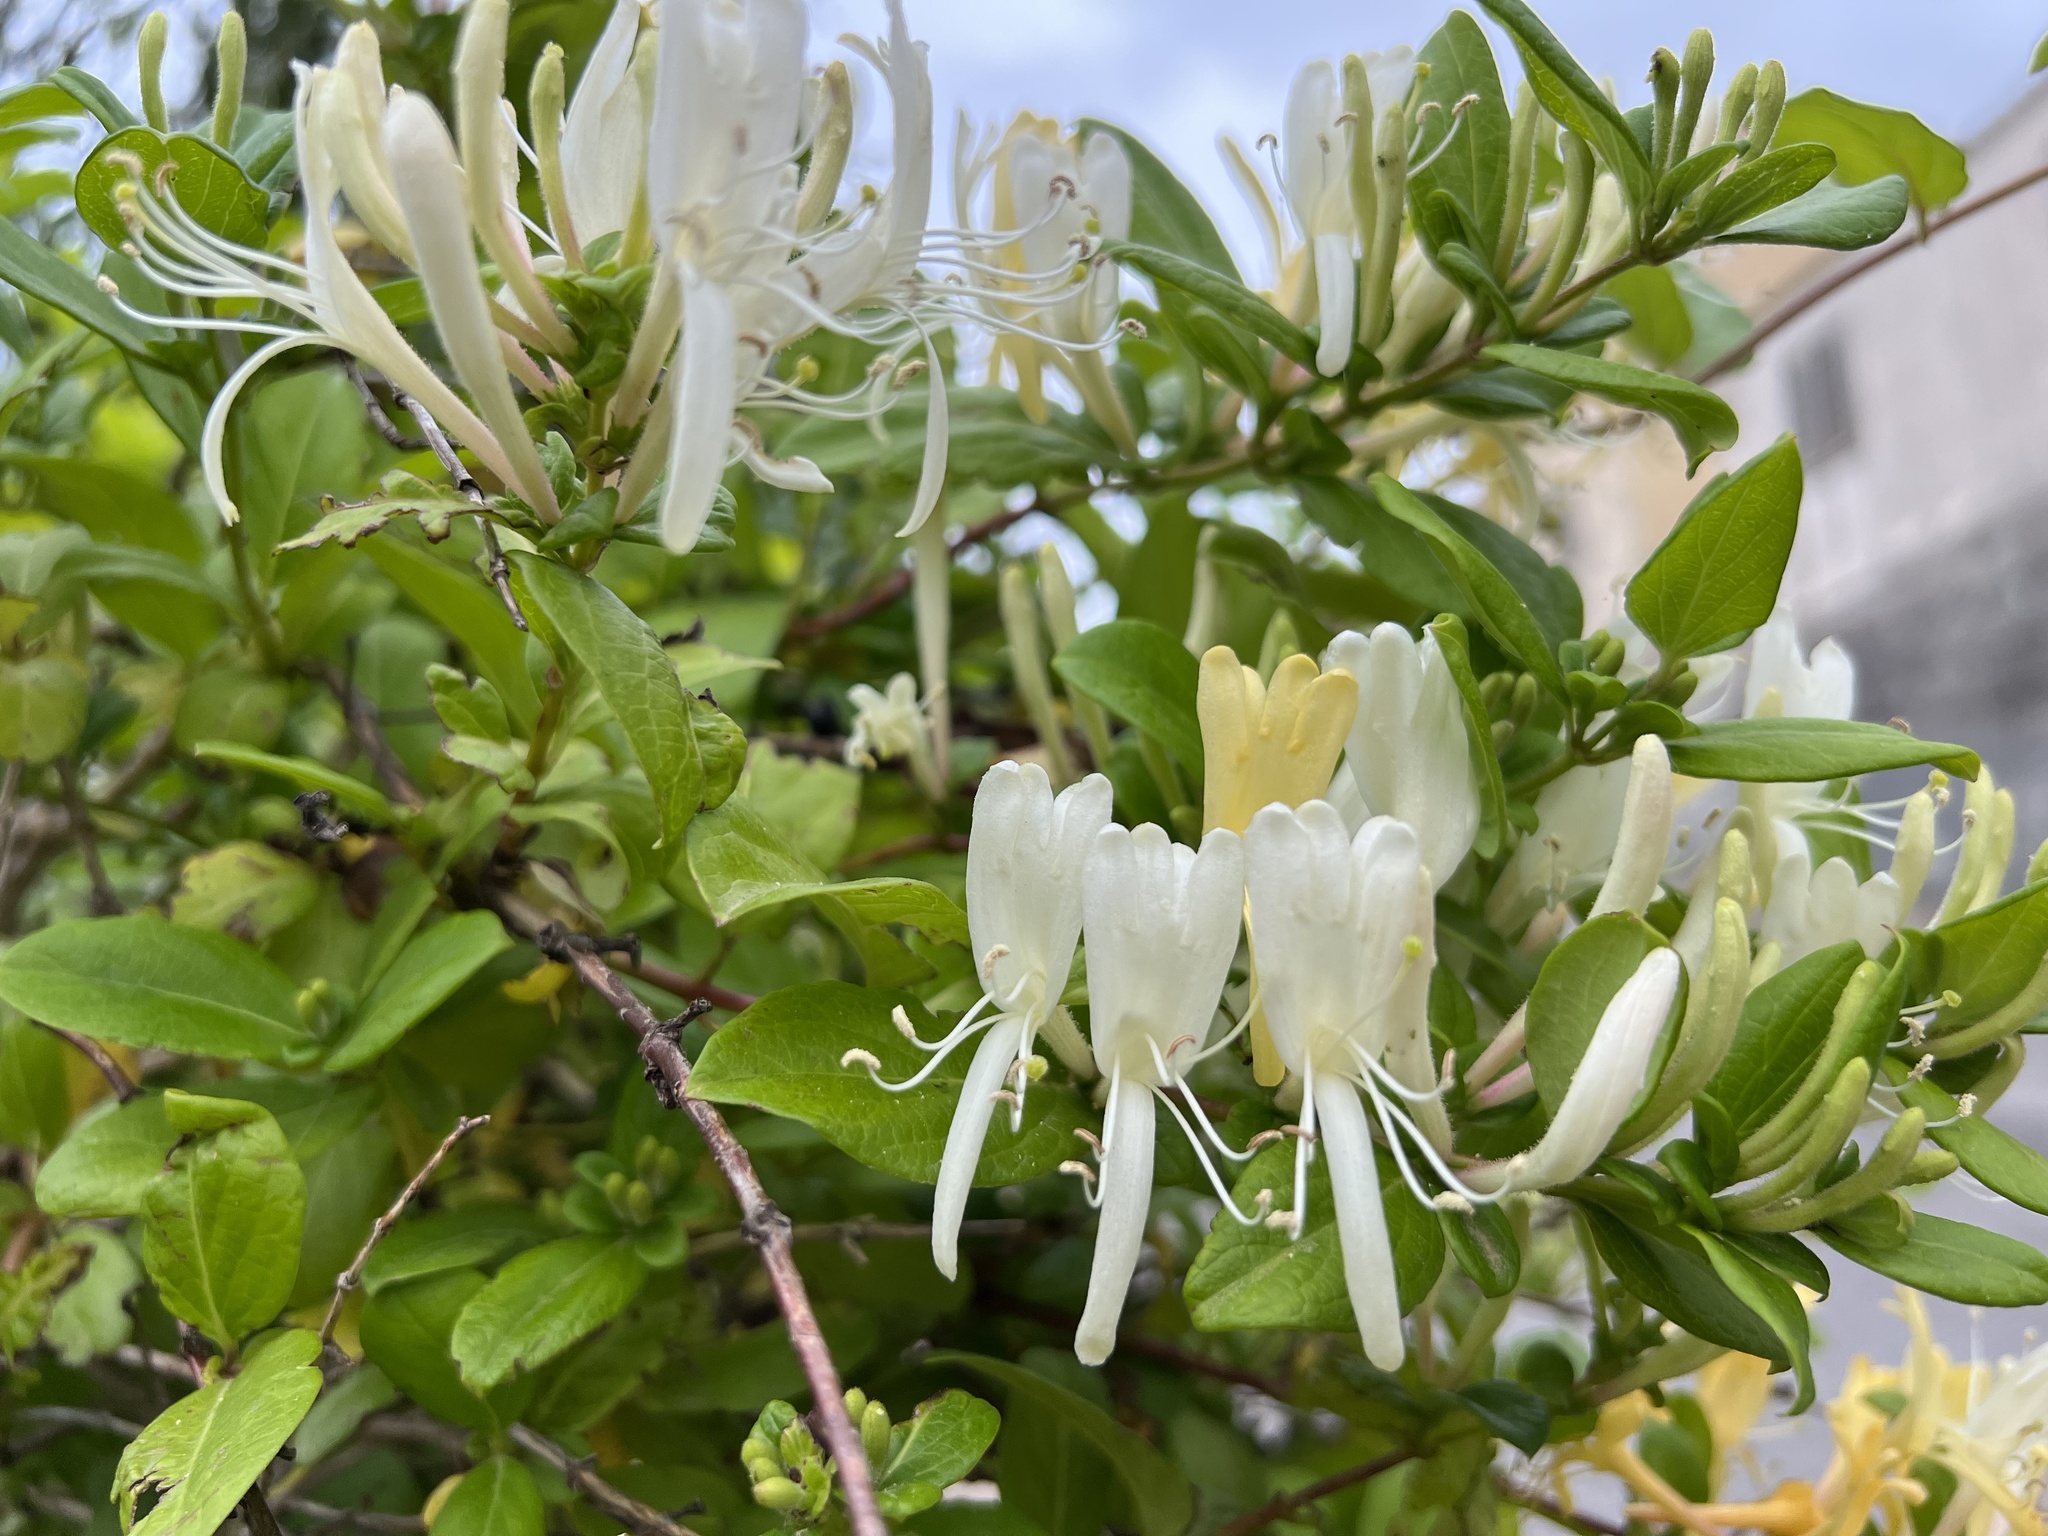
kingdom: Plantae
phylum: Tracheophyta
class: Magnoliopsida
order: Dipsacales
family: Caprifoliaceae
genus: Lonicera
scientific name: Lonicera japonica
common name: Japanese honeysuckle
